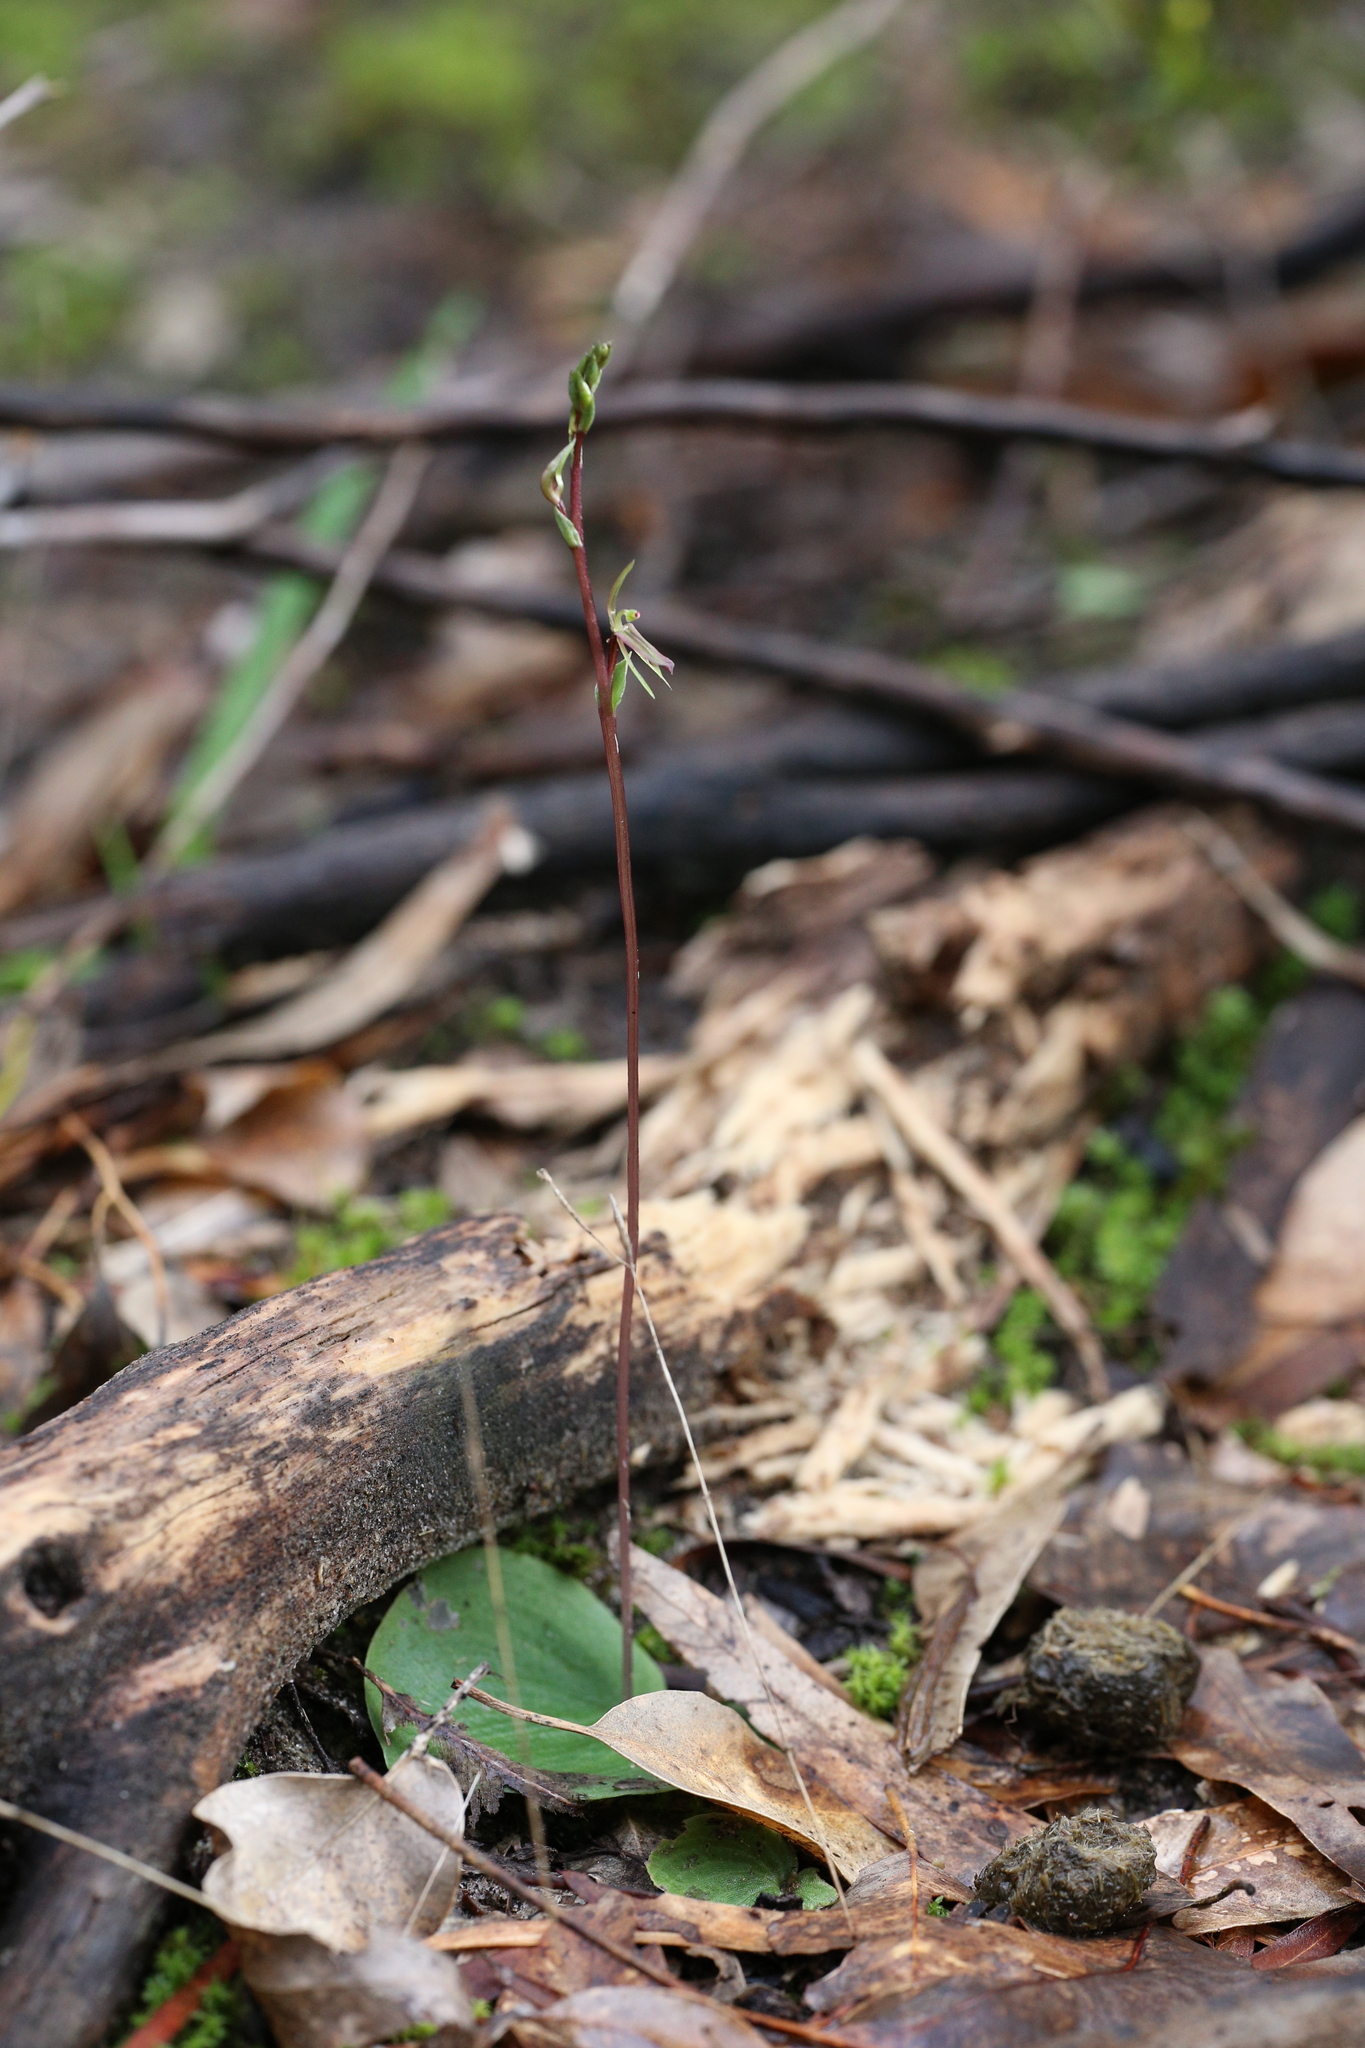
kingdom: Plantae
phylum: Tracheophyta
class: Liliopsida
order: Asparagales
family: Orchidaceae
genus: Cyrtostylis
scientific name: Cyrtostylis huegelii
